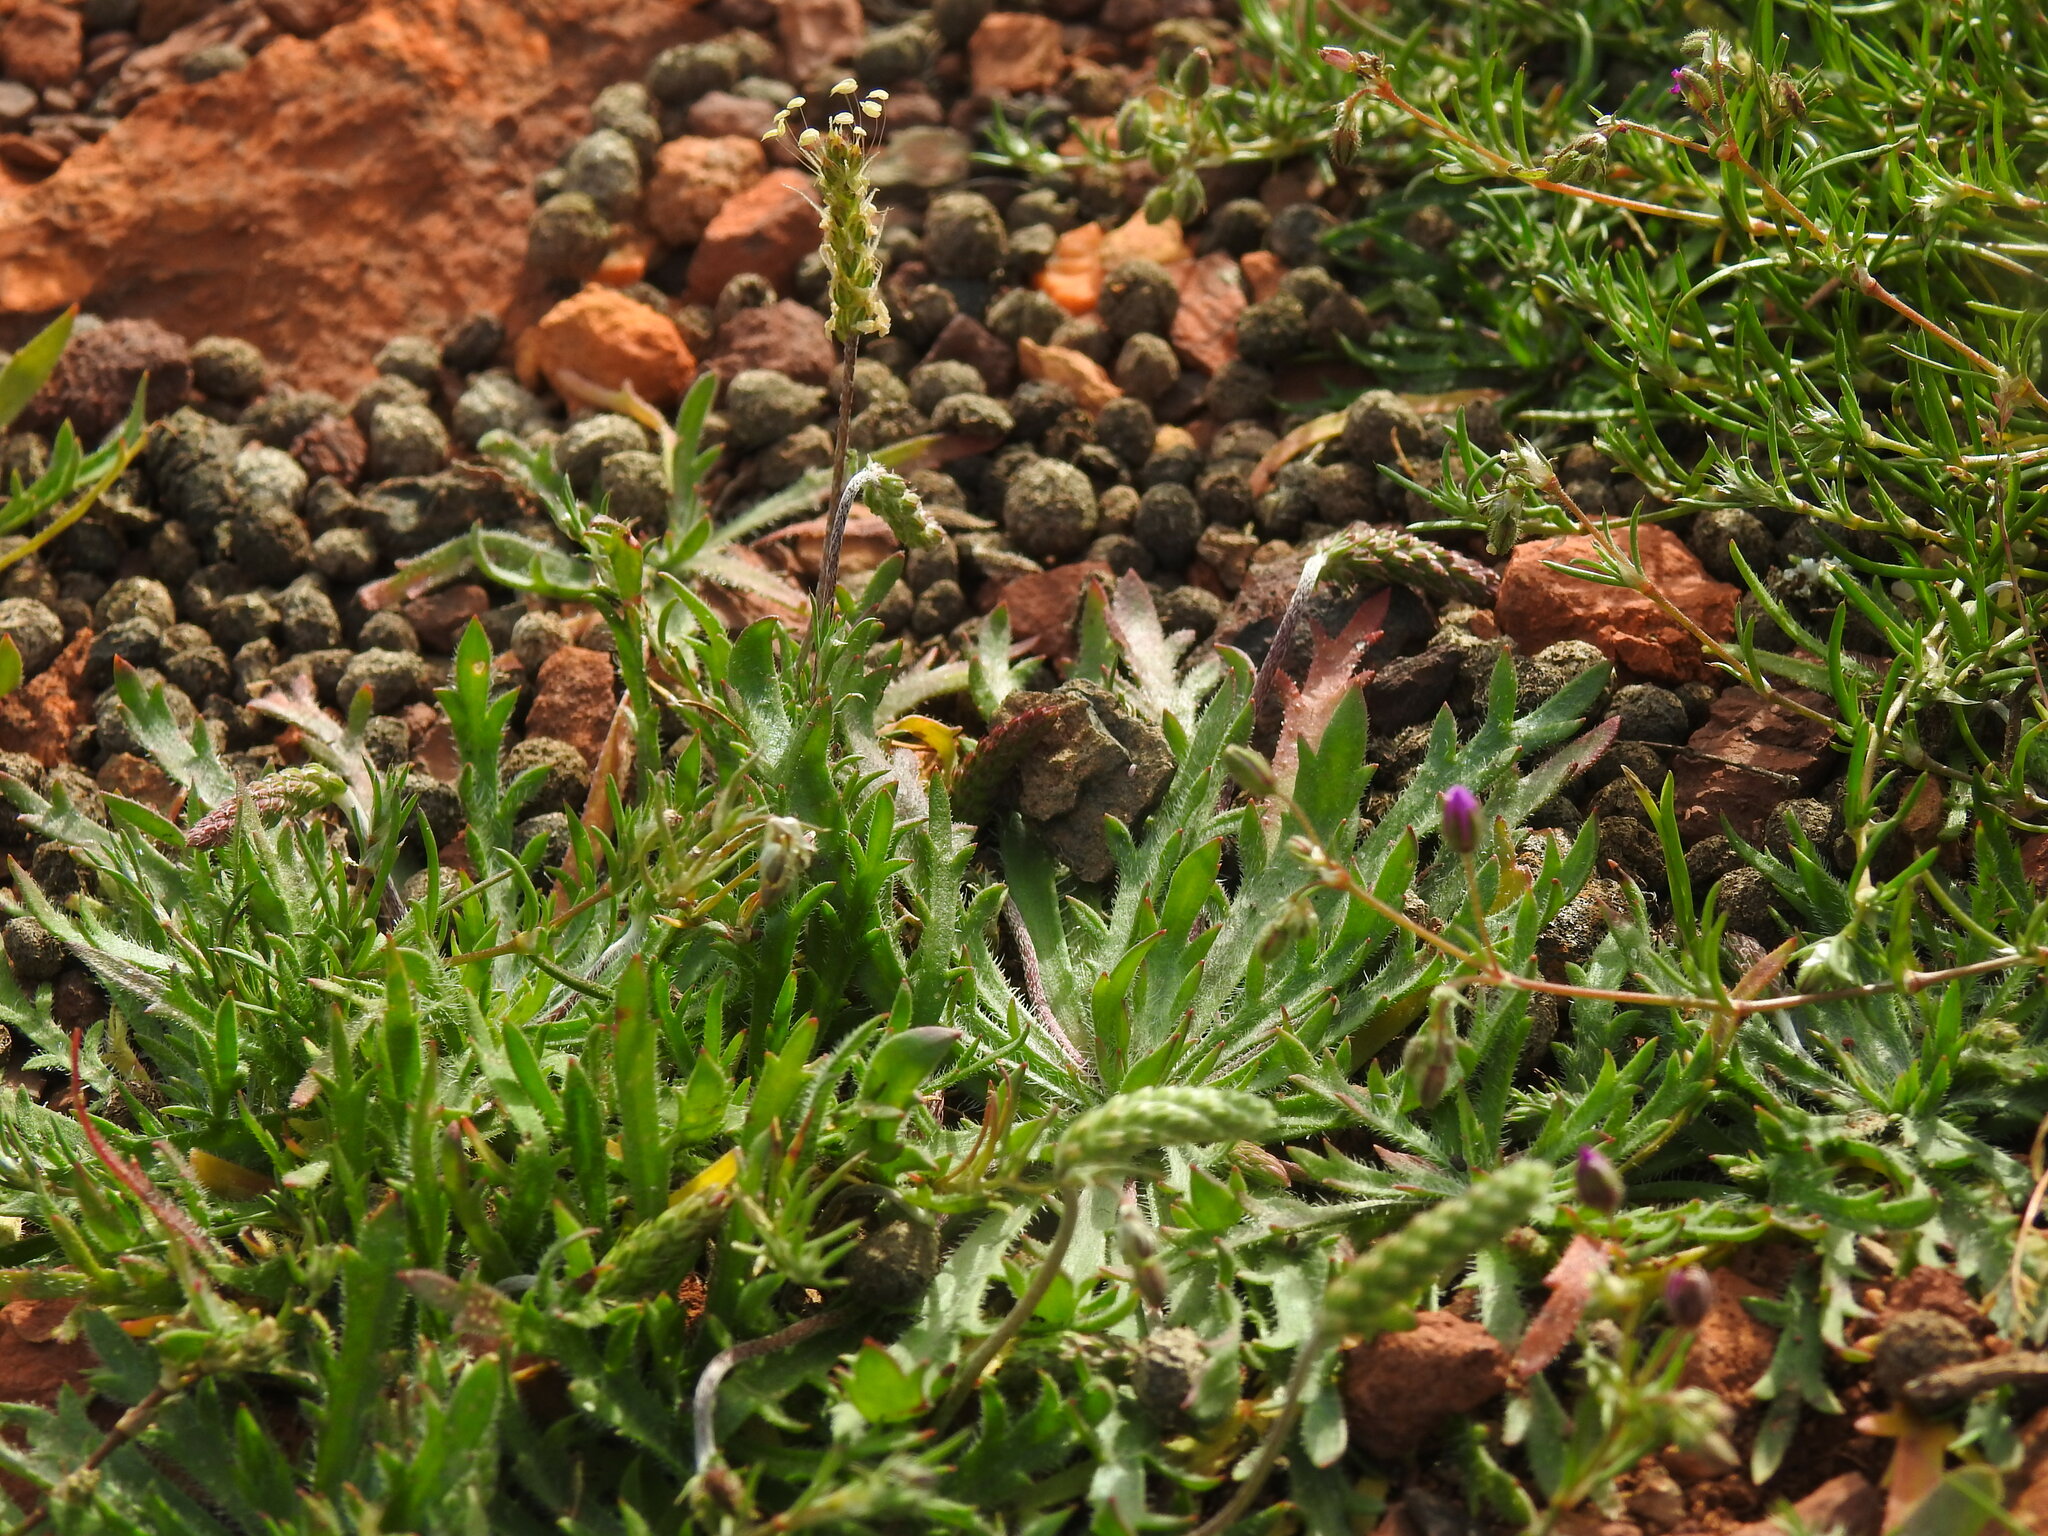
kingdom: Plantae
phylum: Tracheophyta
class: Magnoliopsida
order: Lamiales
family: Plantaginaceae
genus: Plantago
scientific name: Plantago coronopus
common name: Buck's-horn plantain
